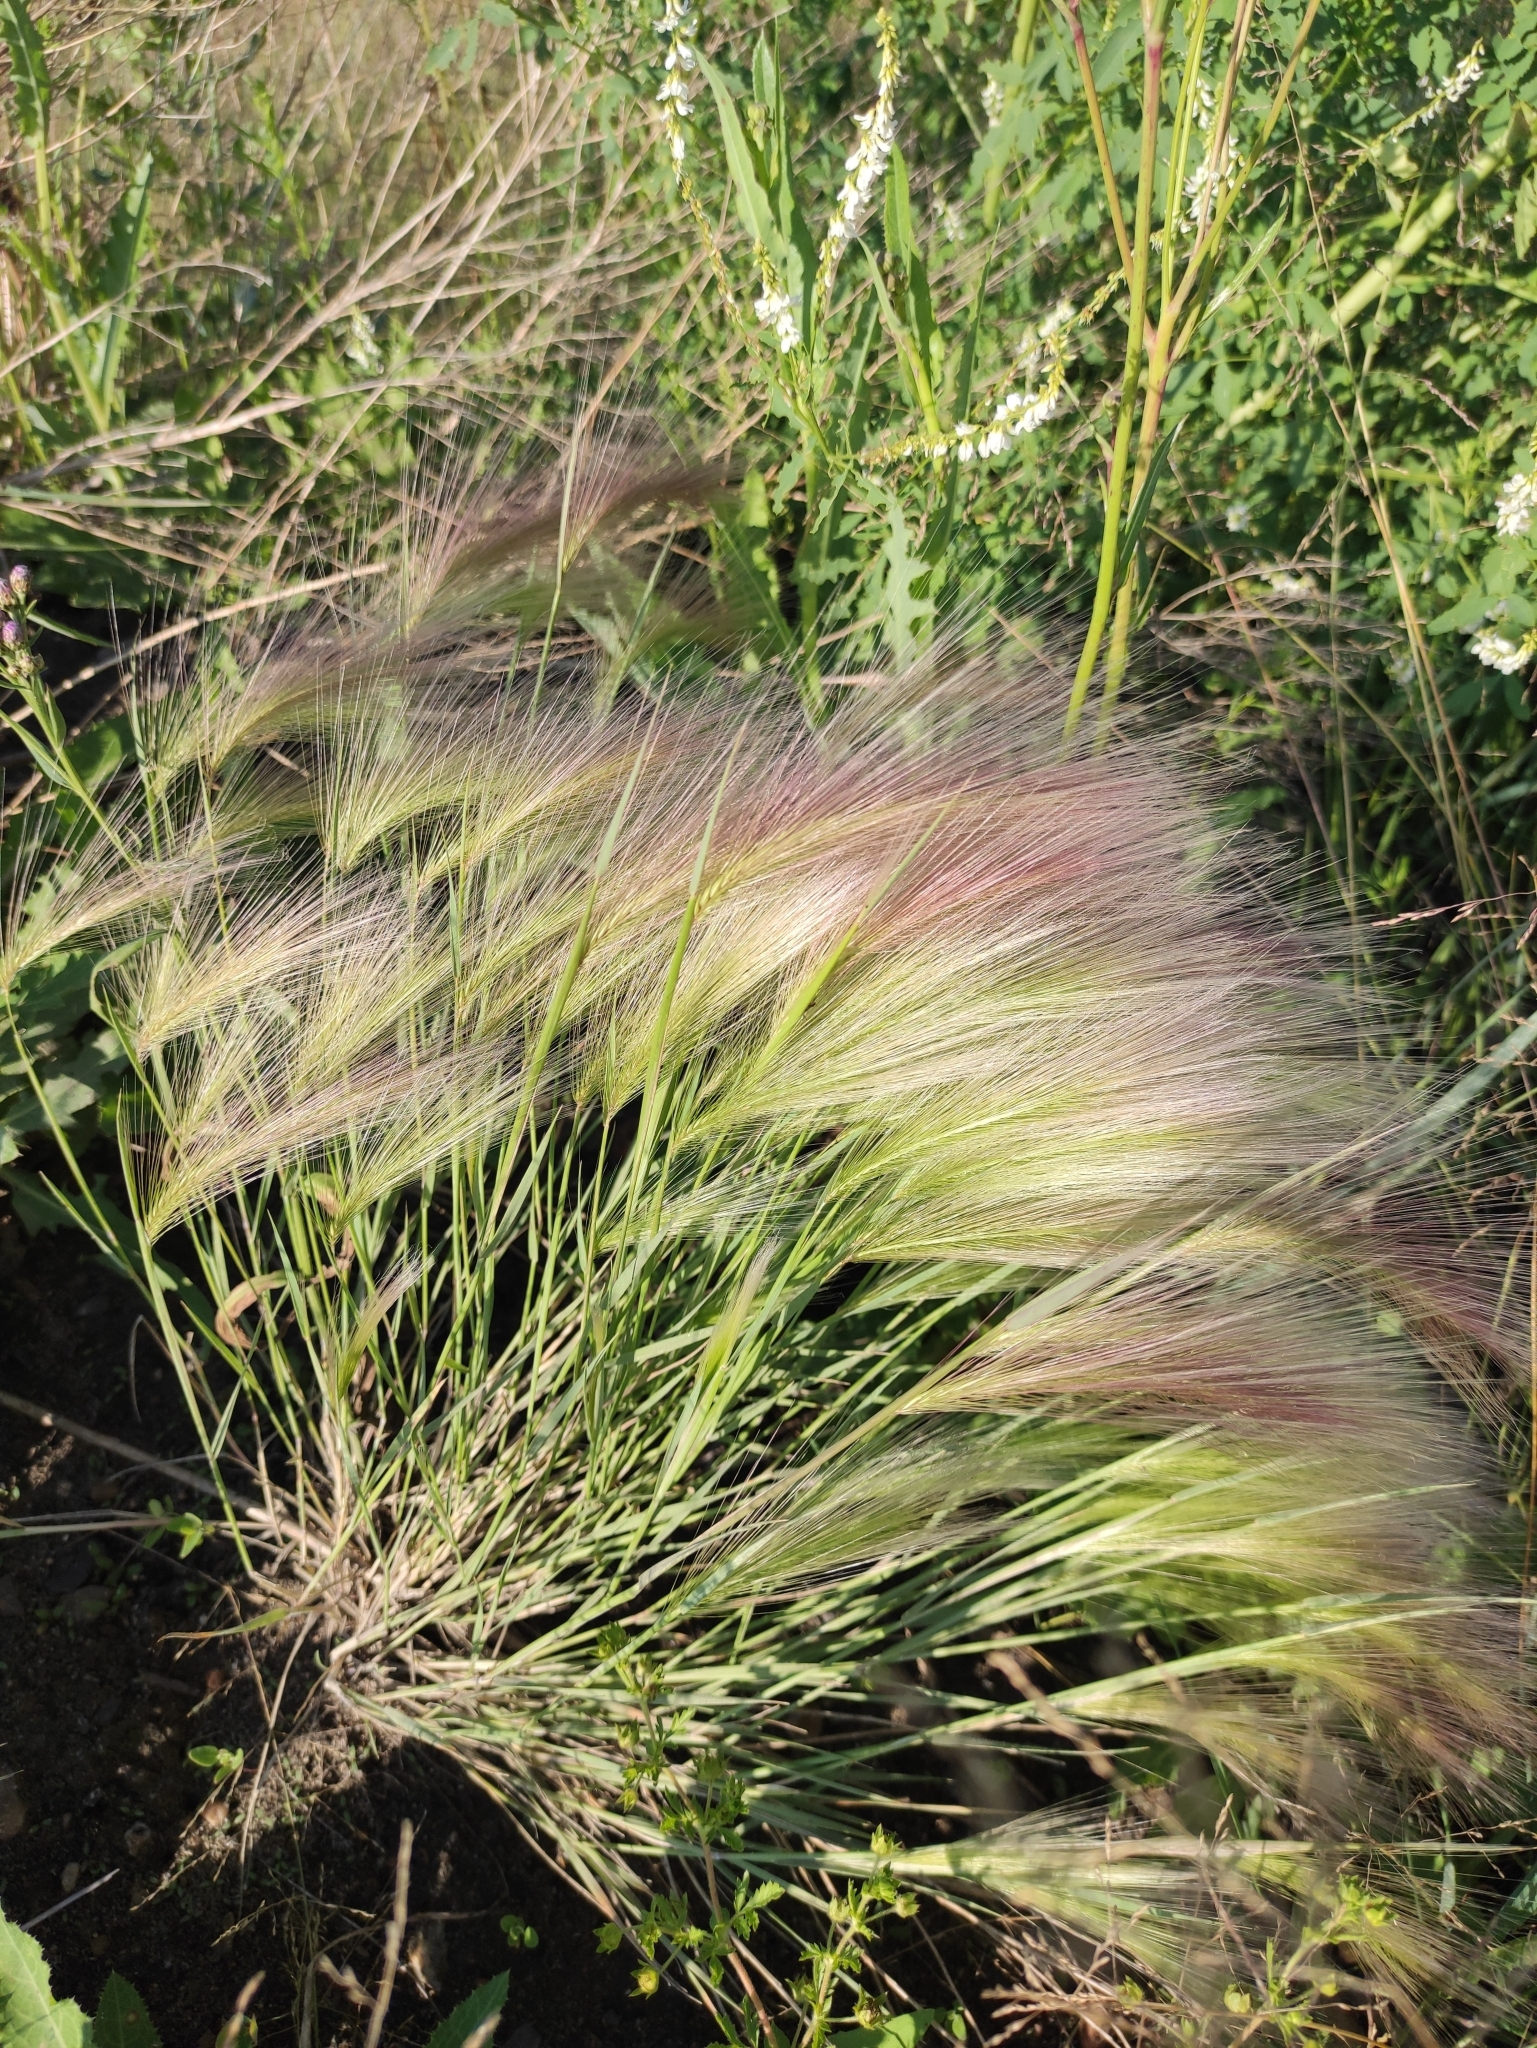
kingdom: Plantae
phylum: Tracheophyta
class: Liliopsida
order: Poales
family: Poaceae
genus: Hordeum
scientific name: Hordeum jubatum
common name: Foxtail barley
